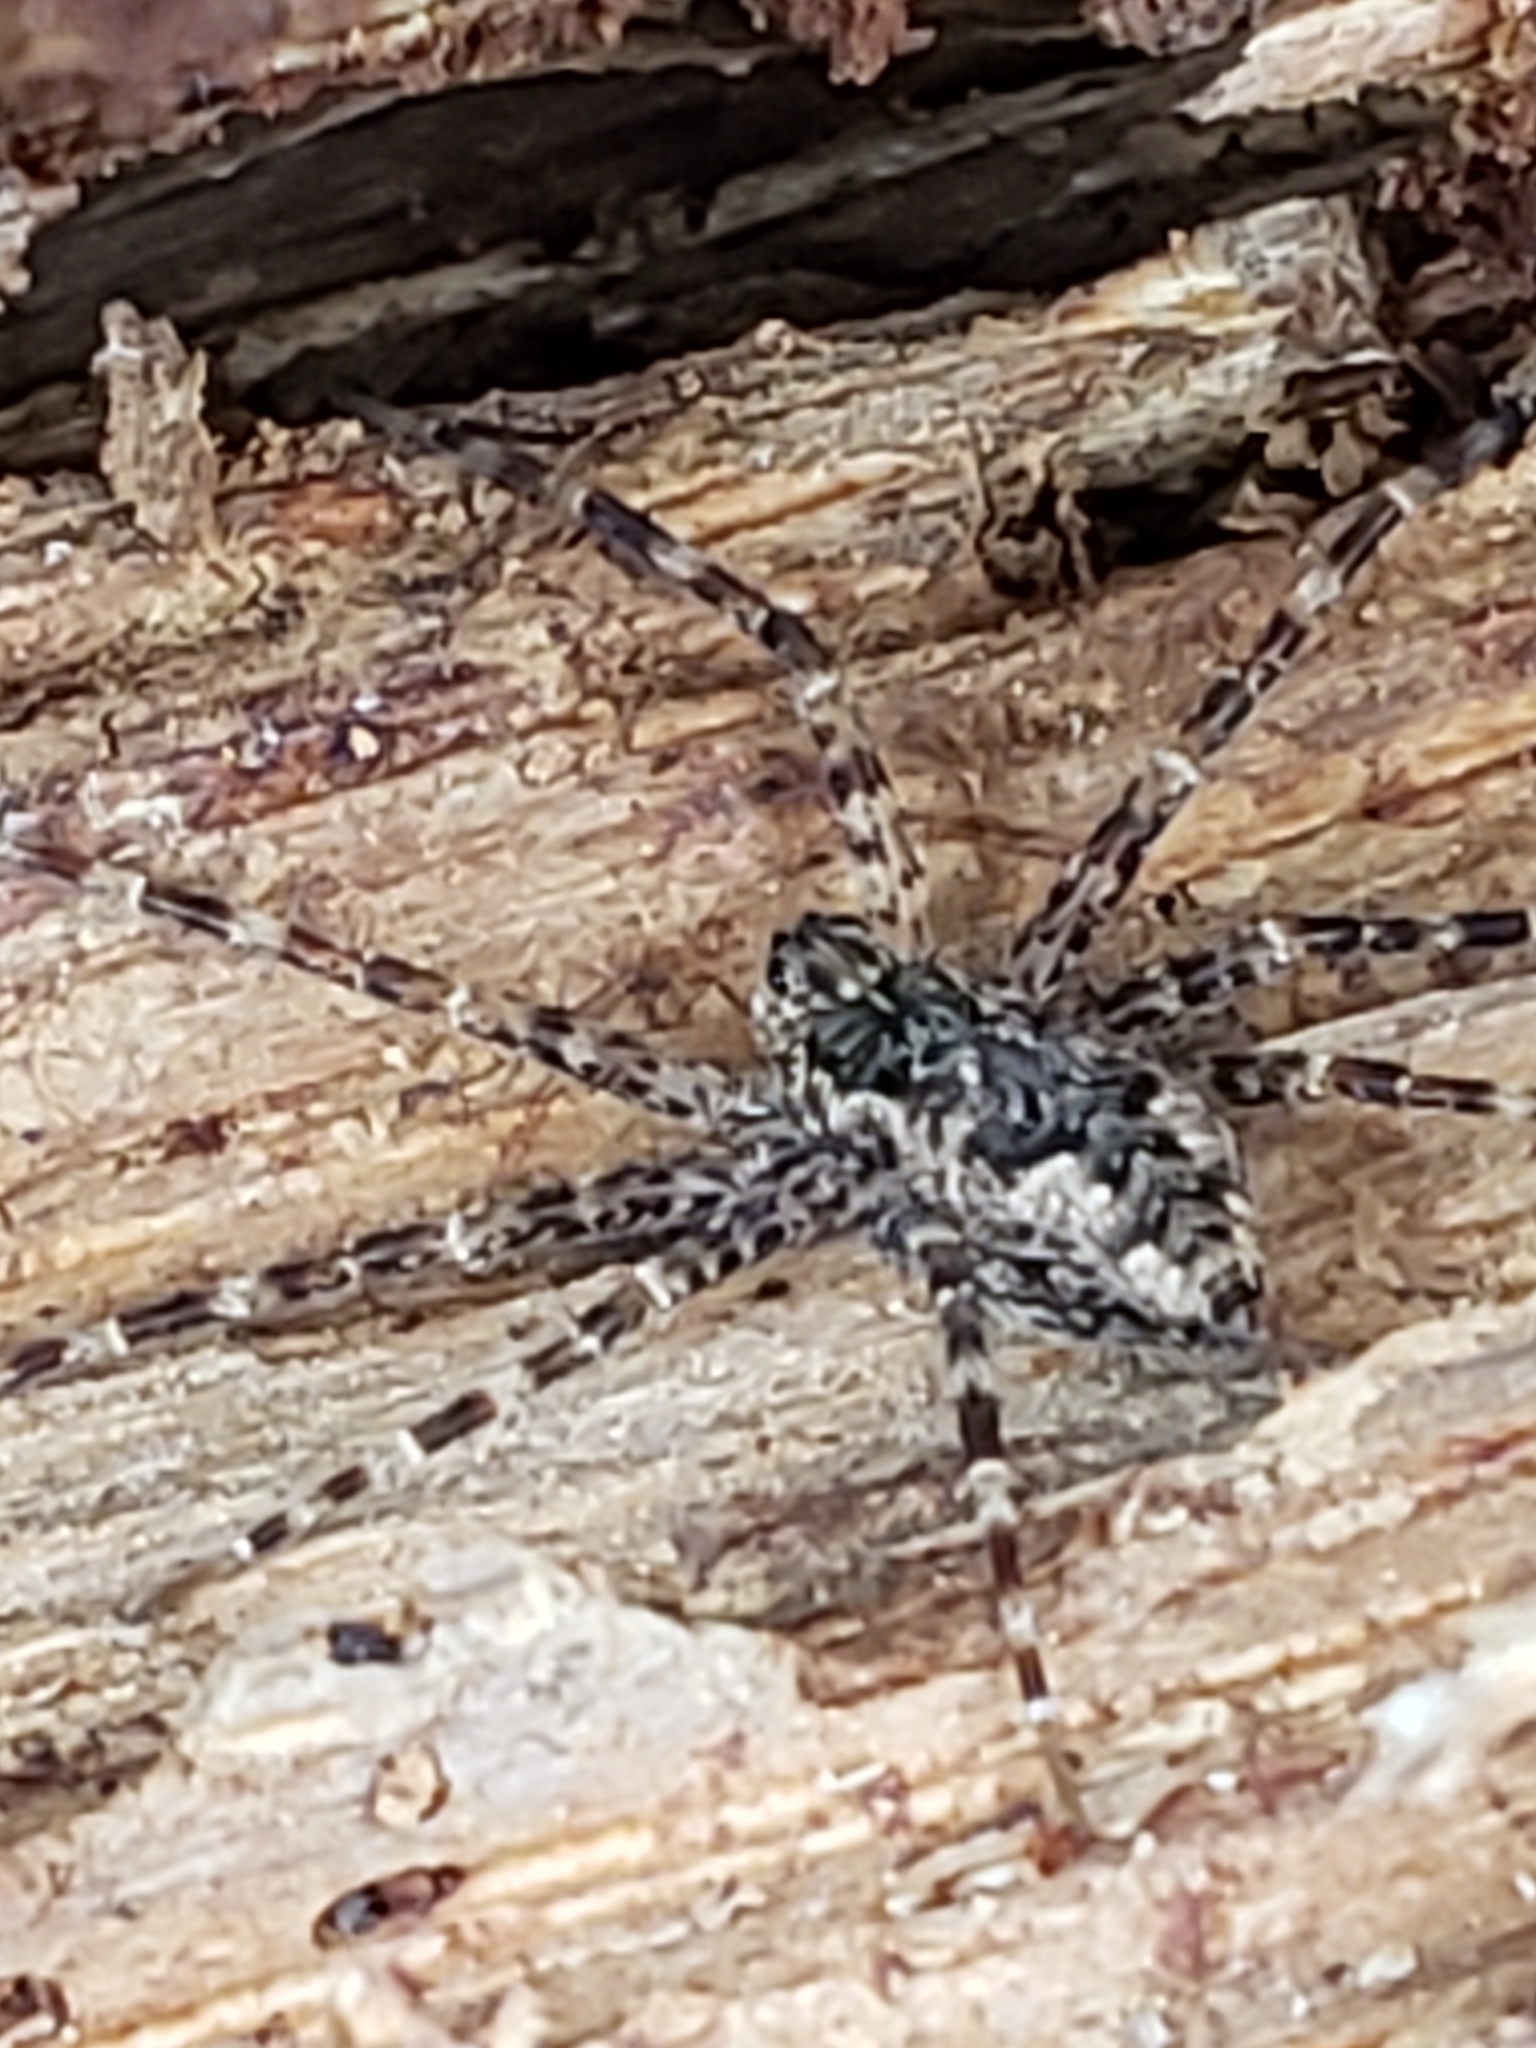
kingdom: Animalia
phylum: Arthropoda
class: Arachnida
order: Araneae
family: Pisauridae
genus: Dolomedes
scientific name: Dolomedes tenebrosus
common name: Dark fishing spider
